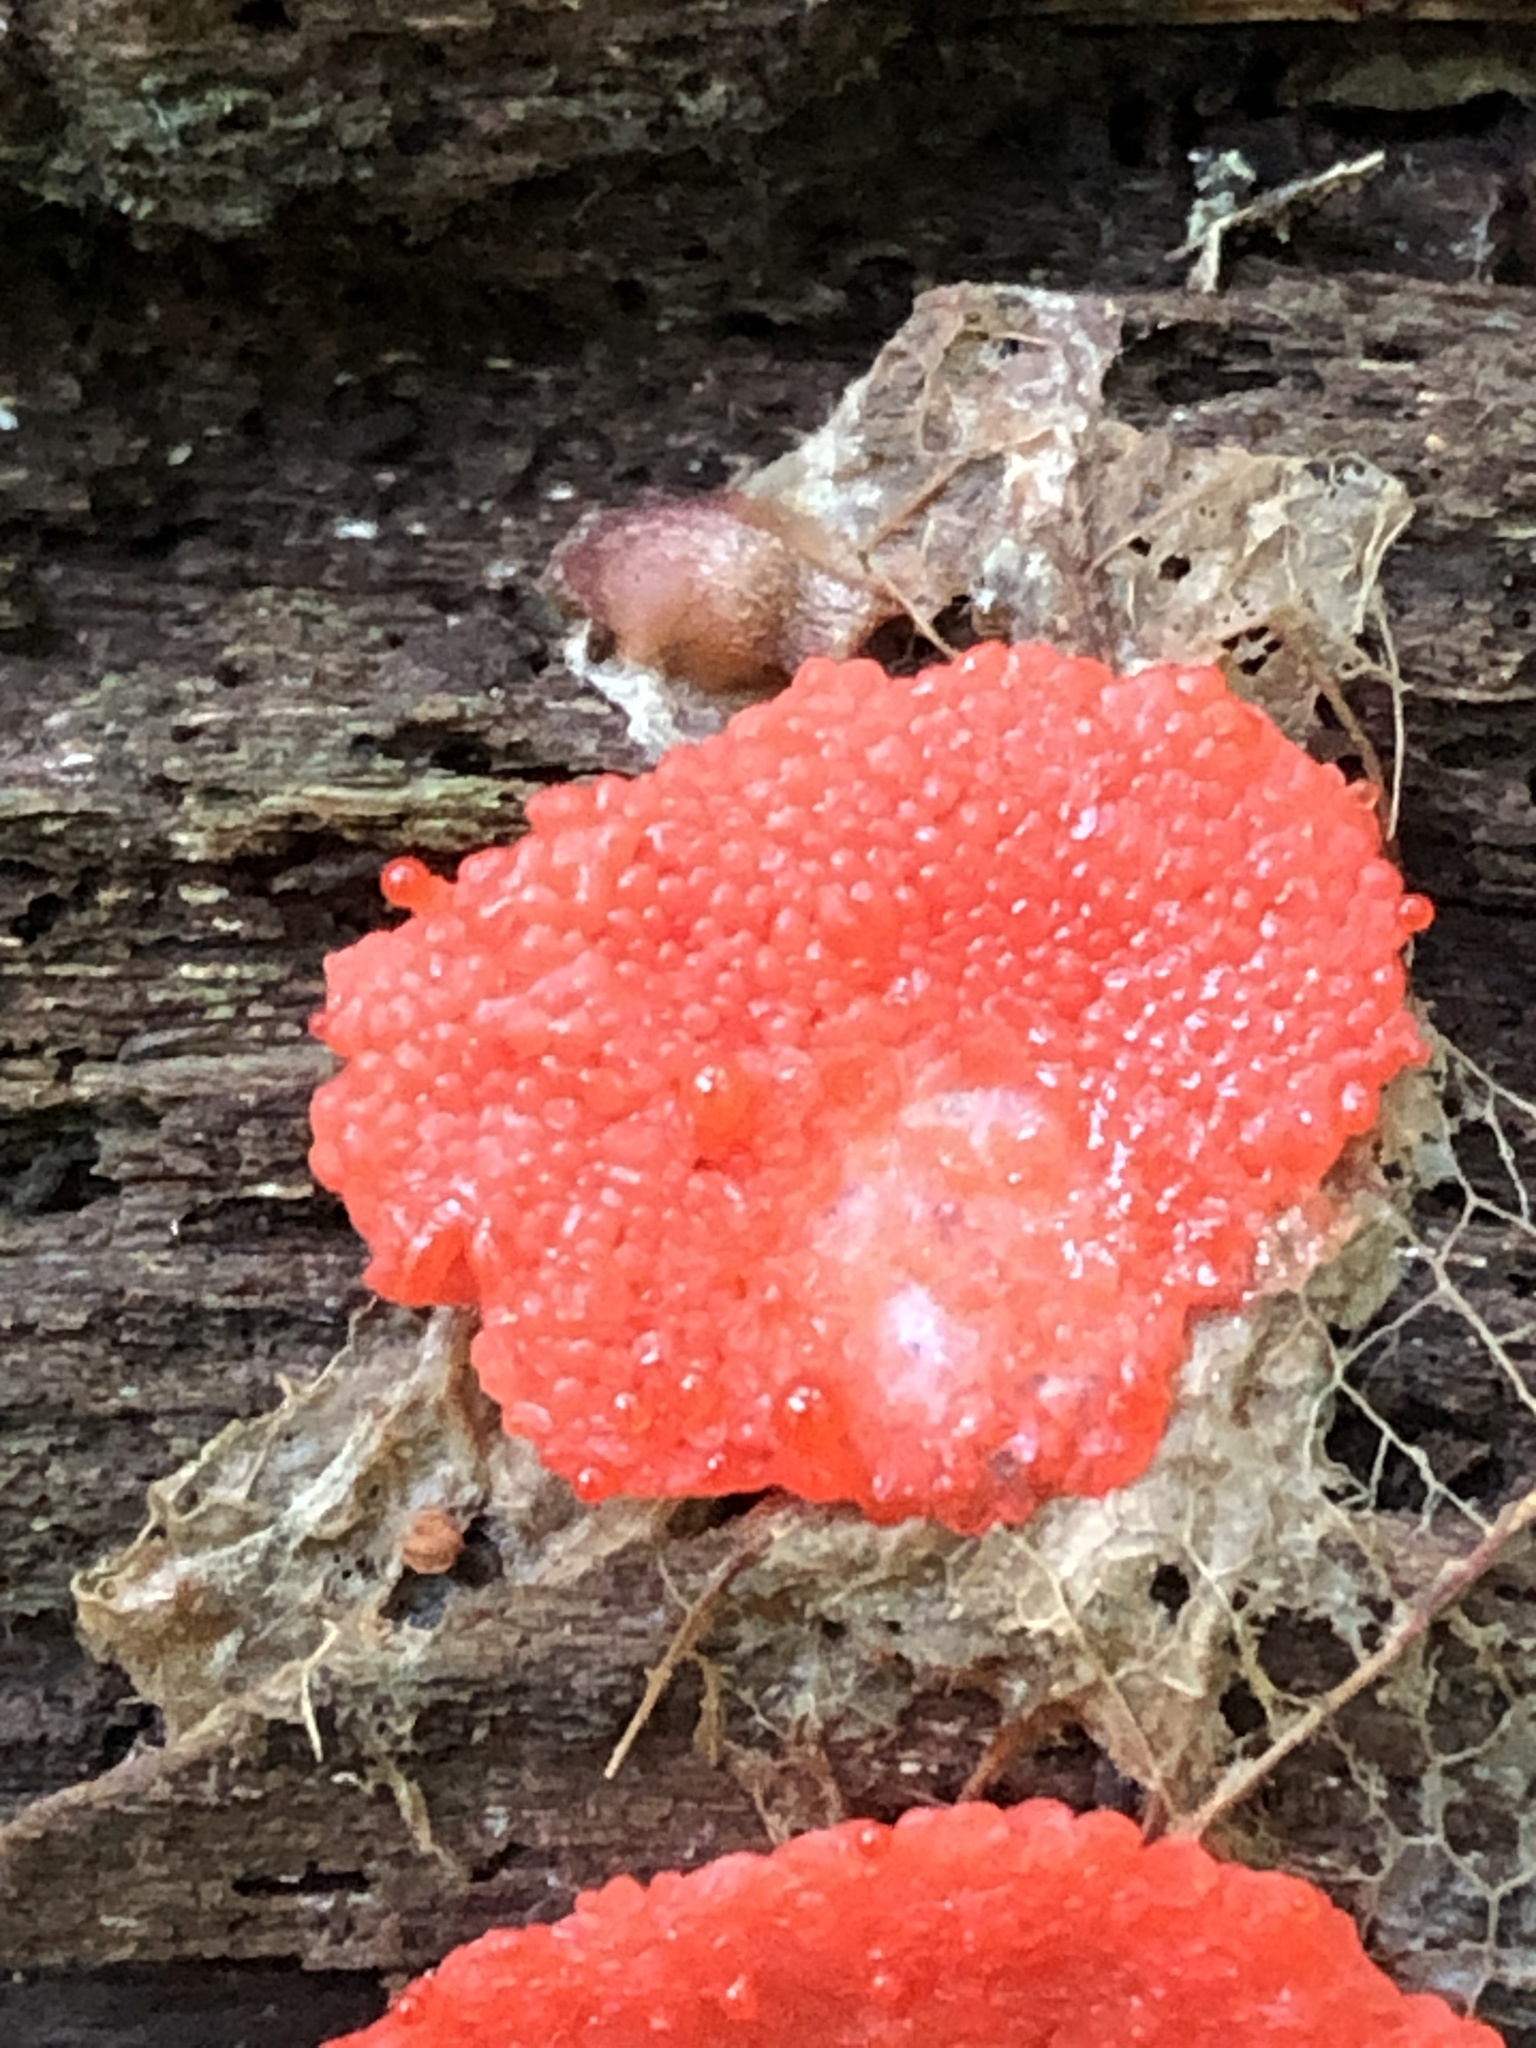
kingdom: Protozoa
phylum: Mycetozoa
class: Myxomycetes
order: Cribrariales
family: Tubiferaceae
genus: Tubifera
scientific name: Tubifera ferruginosa
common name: Red raspberry slime mold
